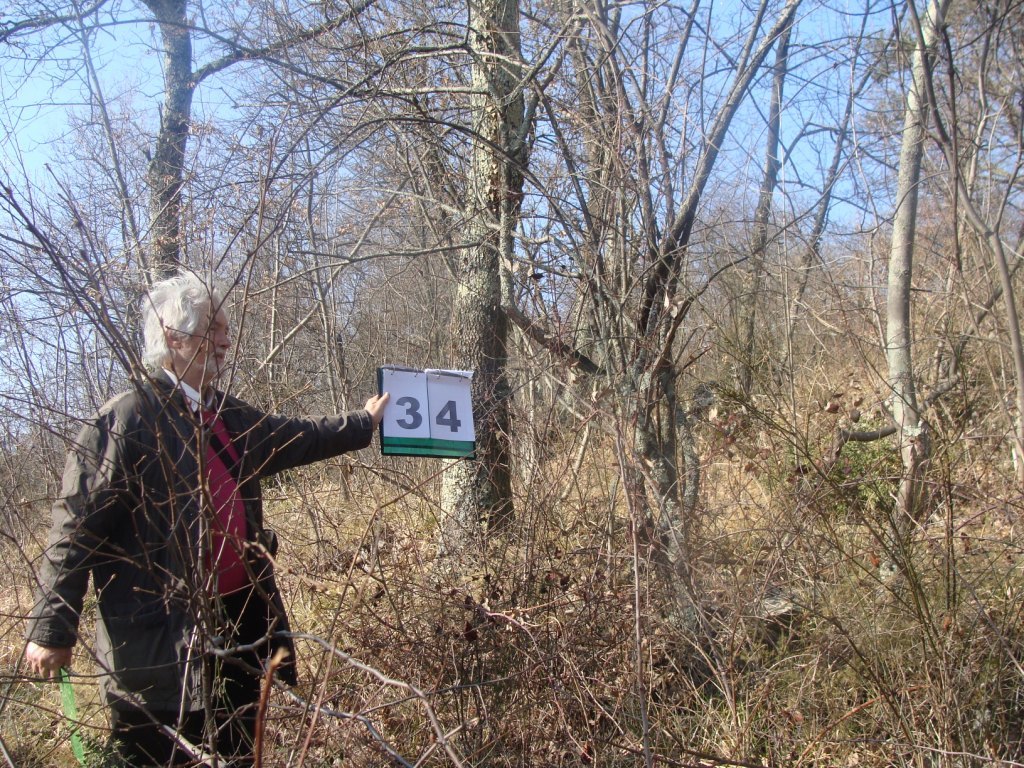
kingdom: Plantae
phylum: Tracheophyta
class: Magnoliopsida
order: Cornales
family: Cornaceae
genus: Cornus
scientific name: Cornus mas
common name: Cornelian-cherry
